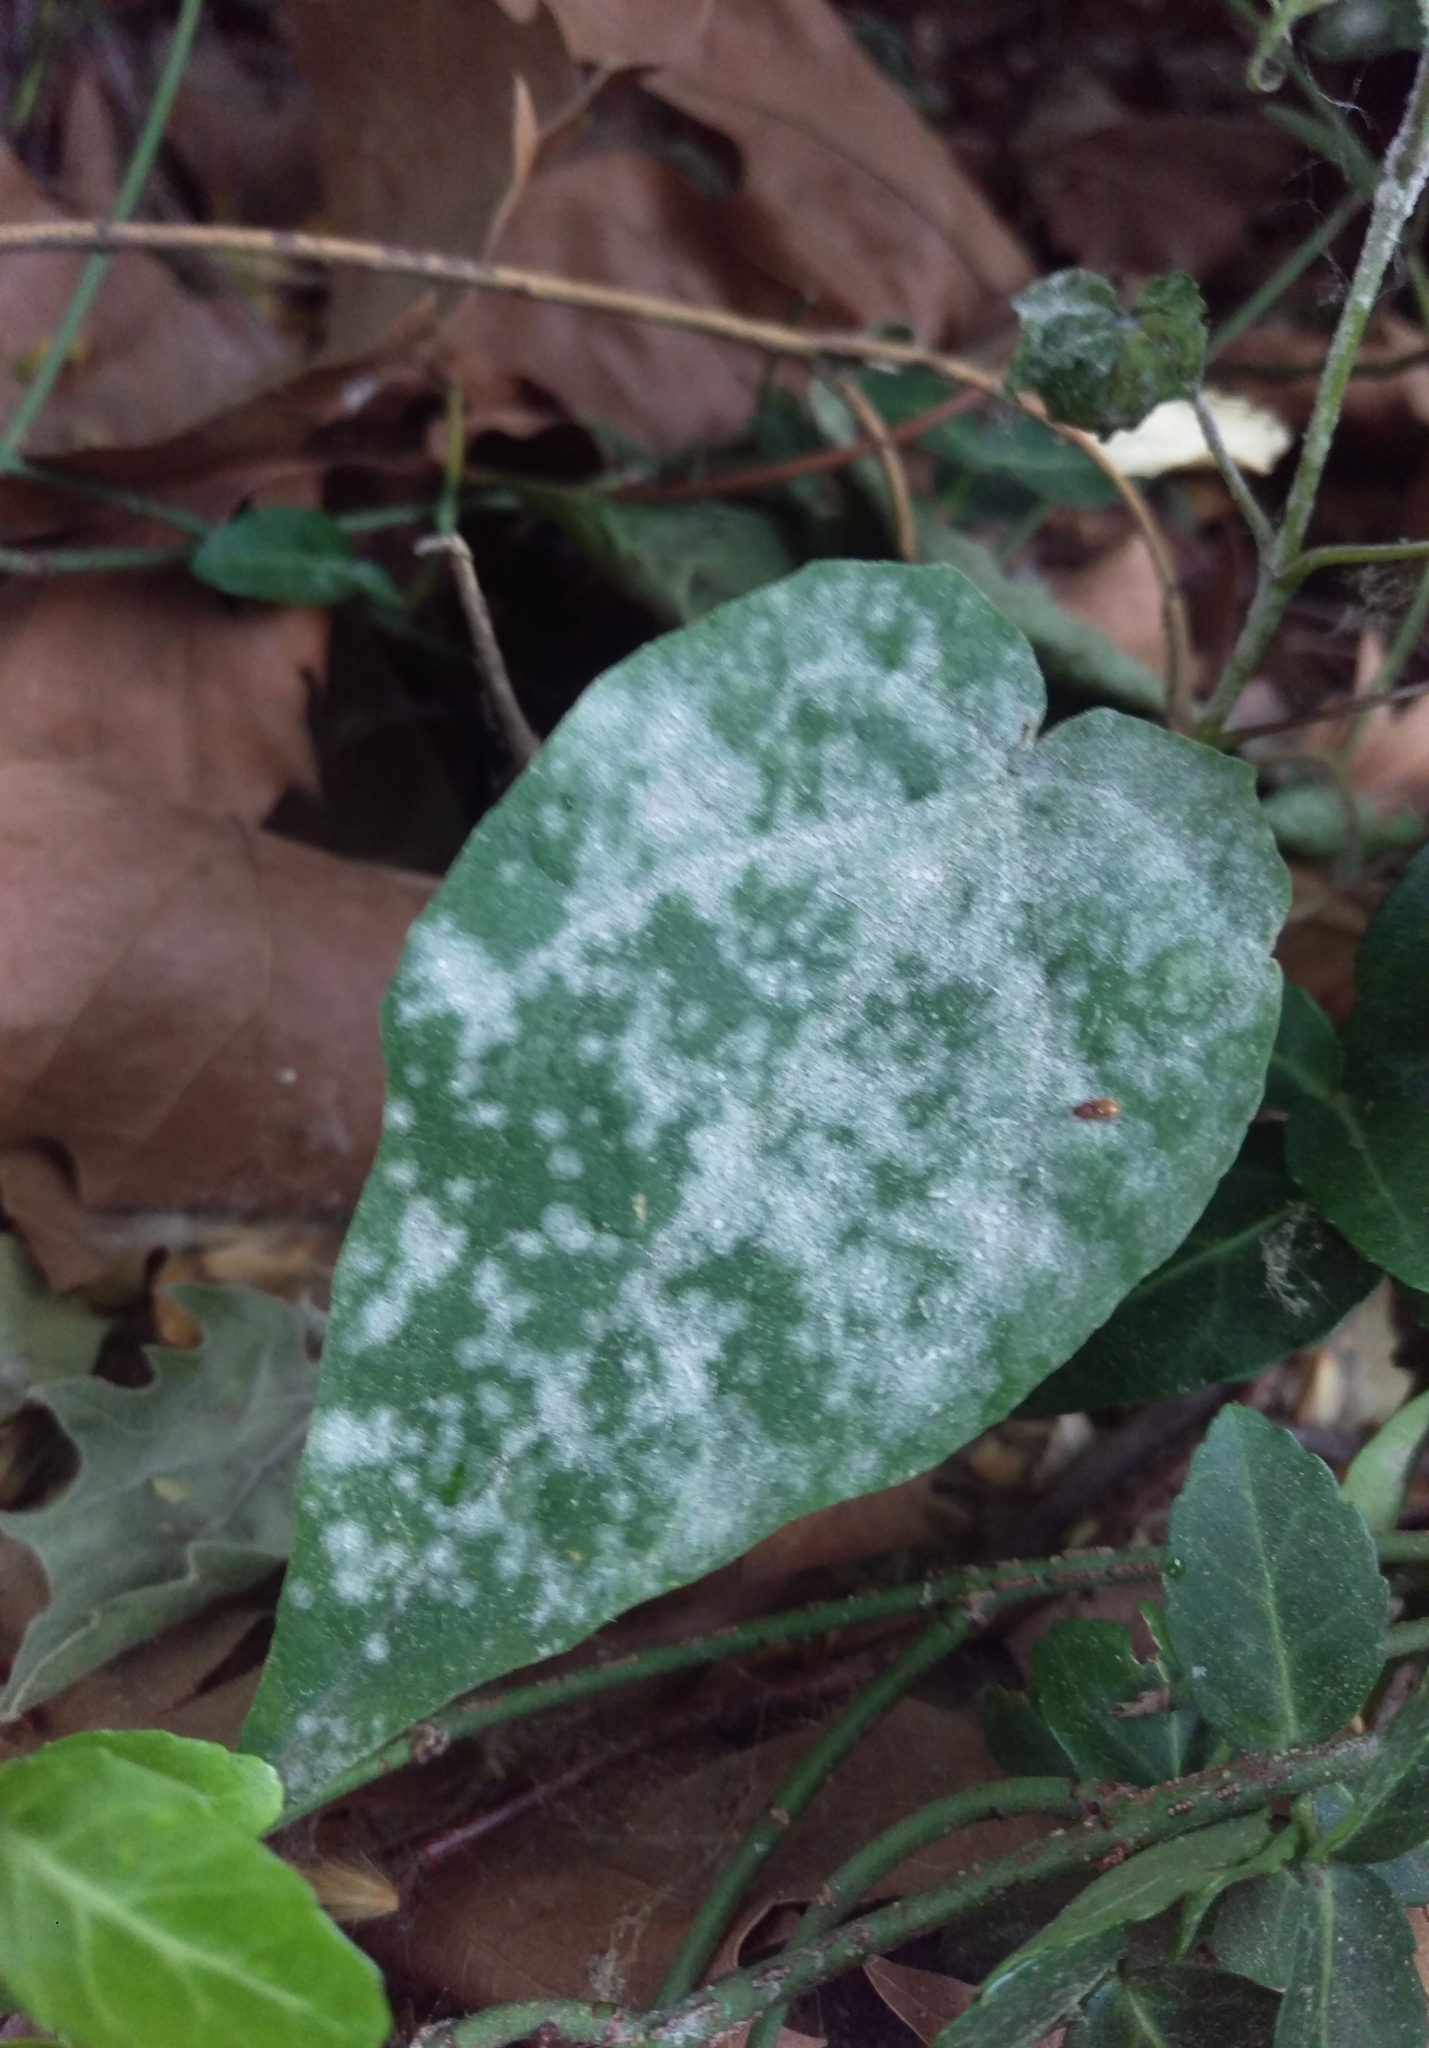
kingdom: Fungi
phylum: Ascomycota
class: Leotiomycetes
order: Helotiales
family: Erysiphaceae
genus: Sawadaea
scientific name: Sawadaea tulasnei
